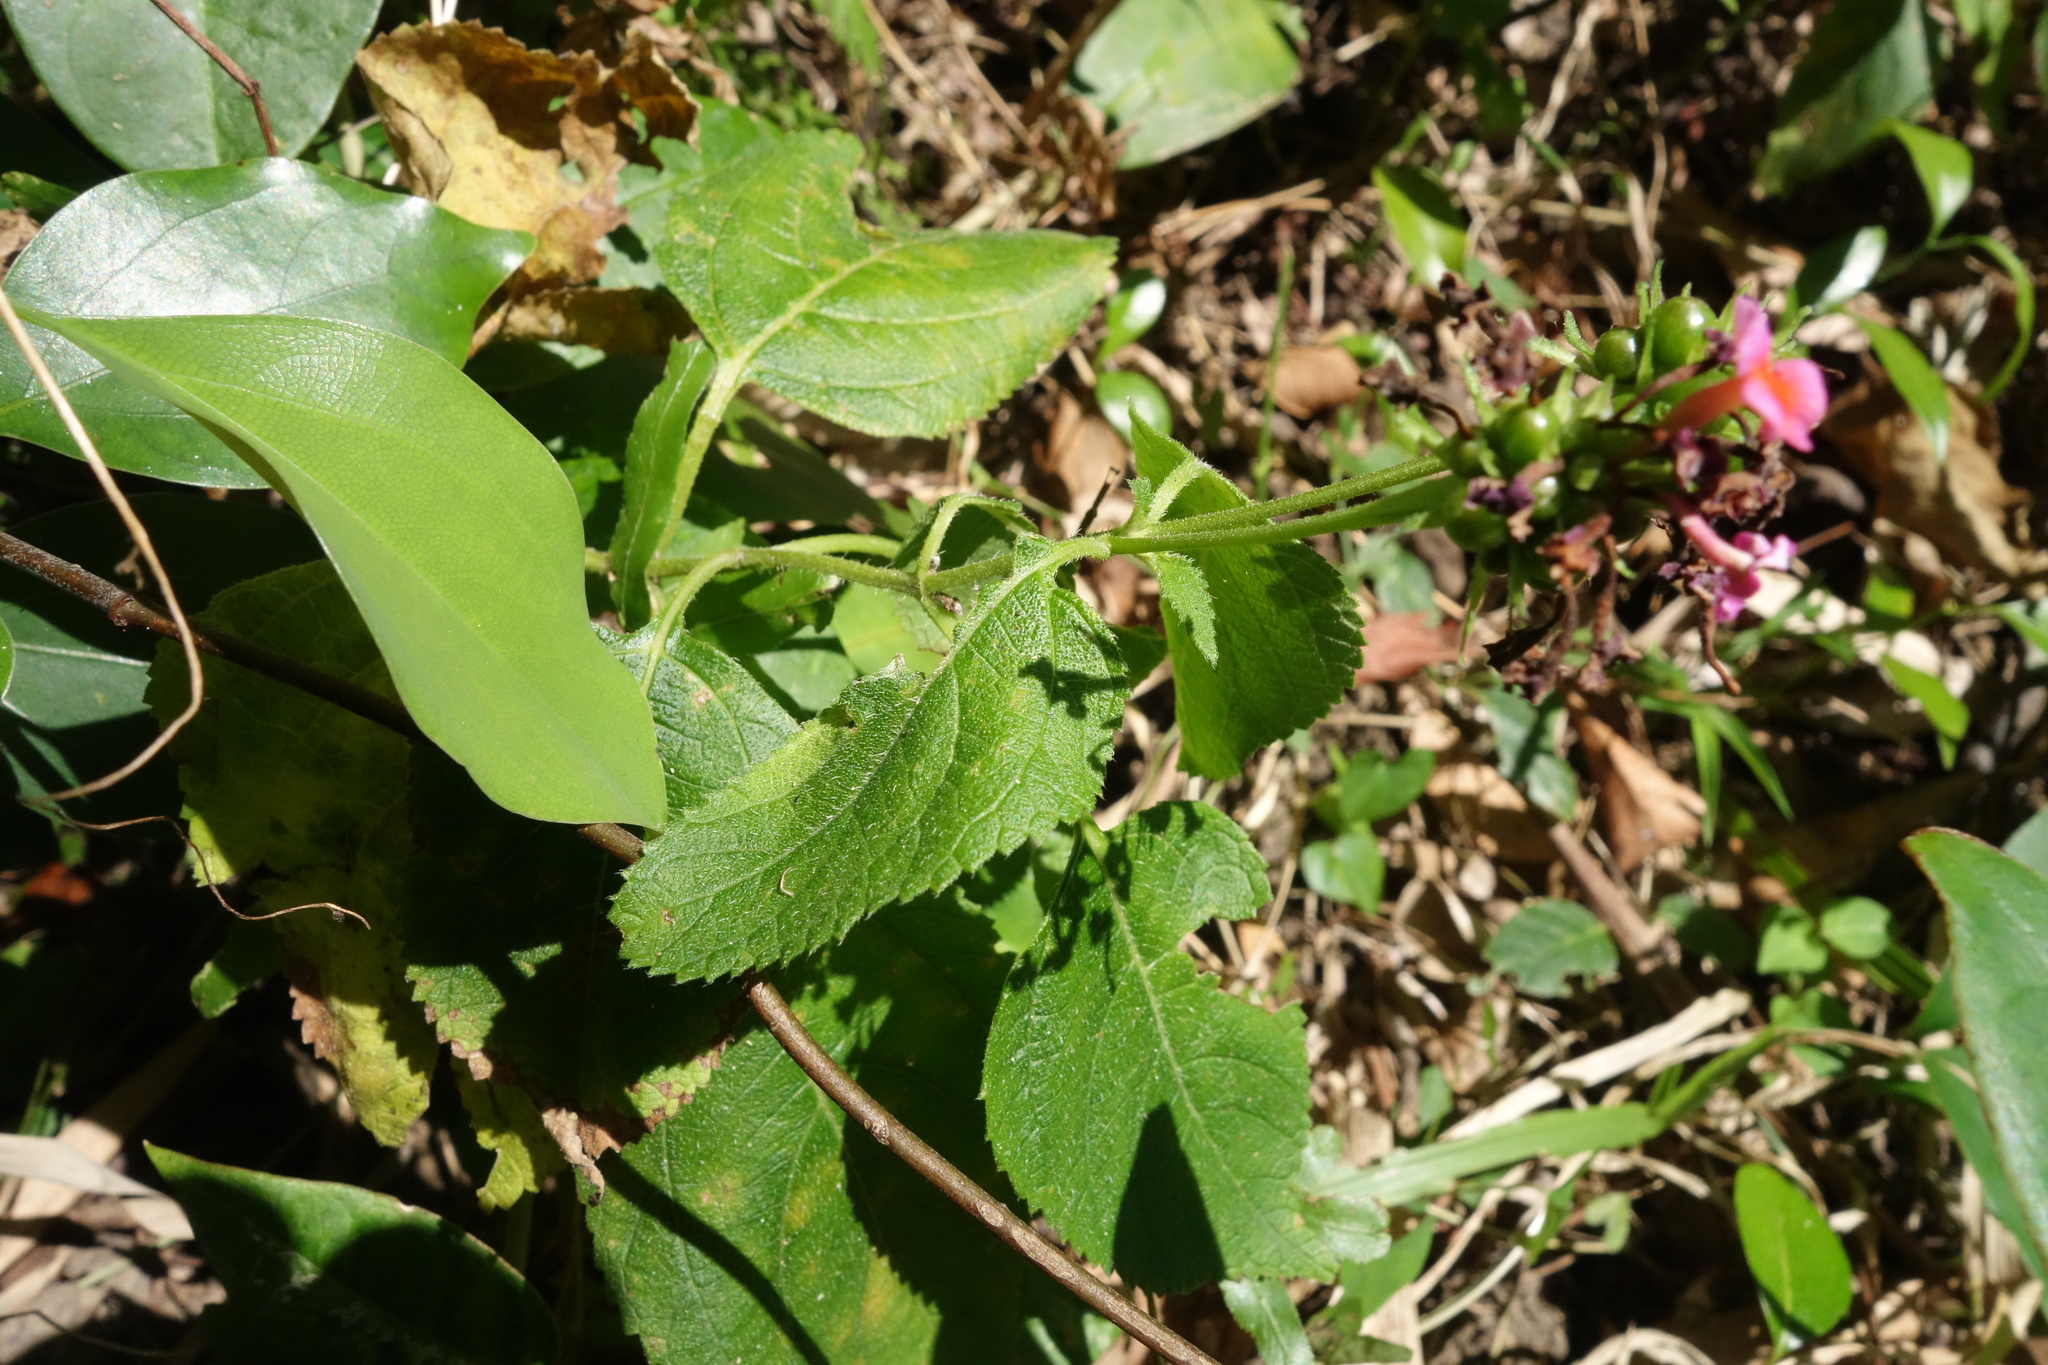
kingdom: Plantae
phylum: Tracheophyta
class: Magnoliopsida
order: Lamiales
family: Verbenaceae
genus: Lantana
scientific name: Lantana camara
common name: Lantana
